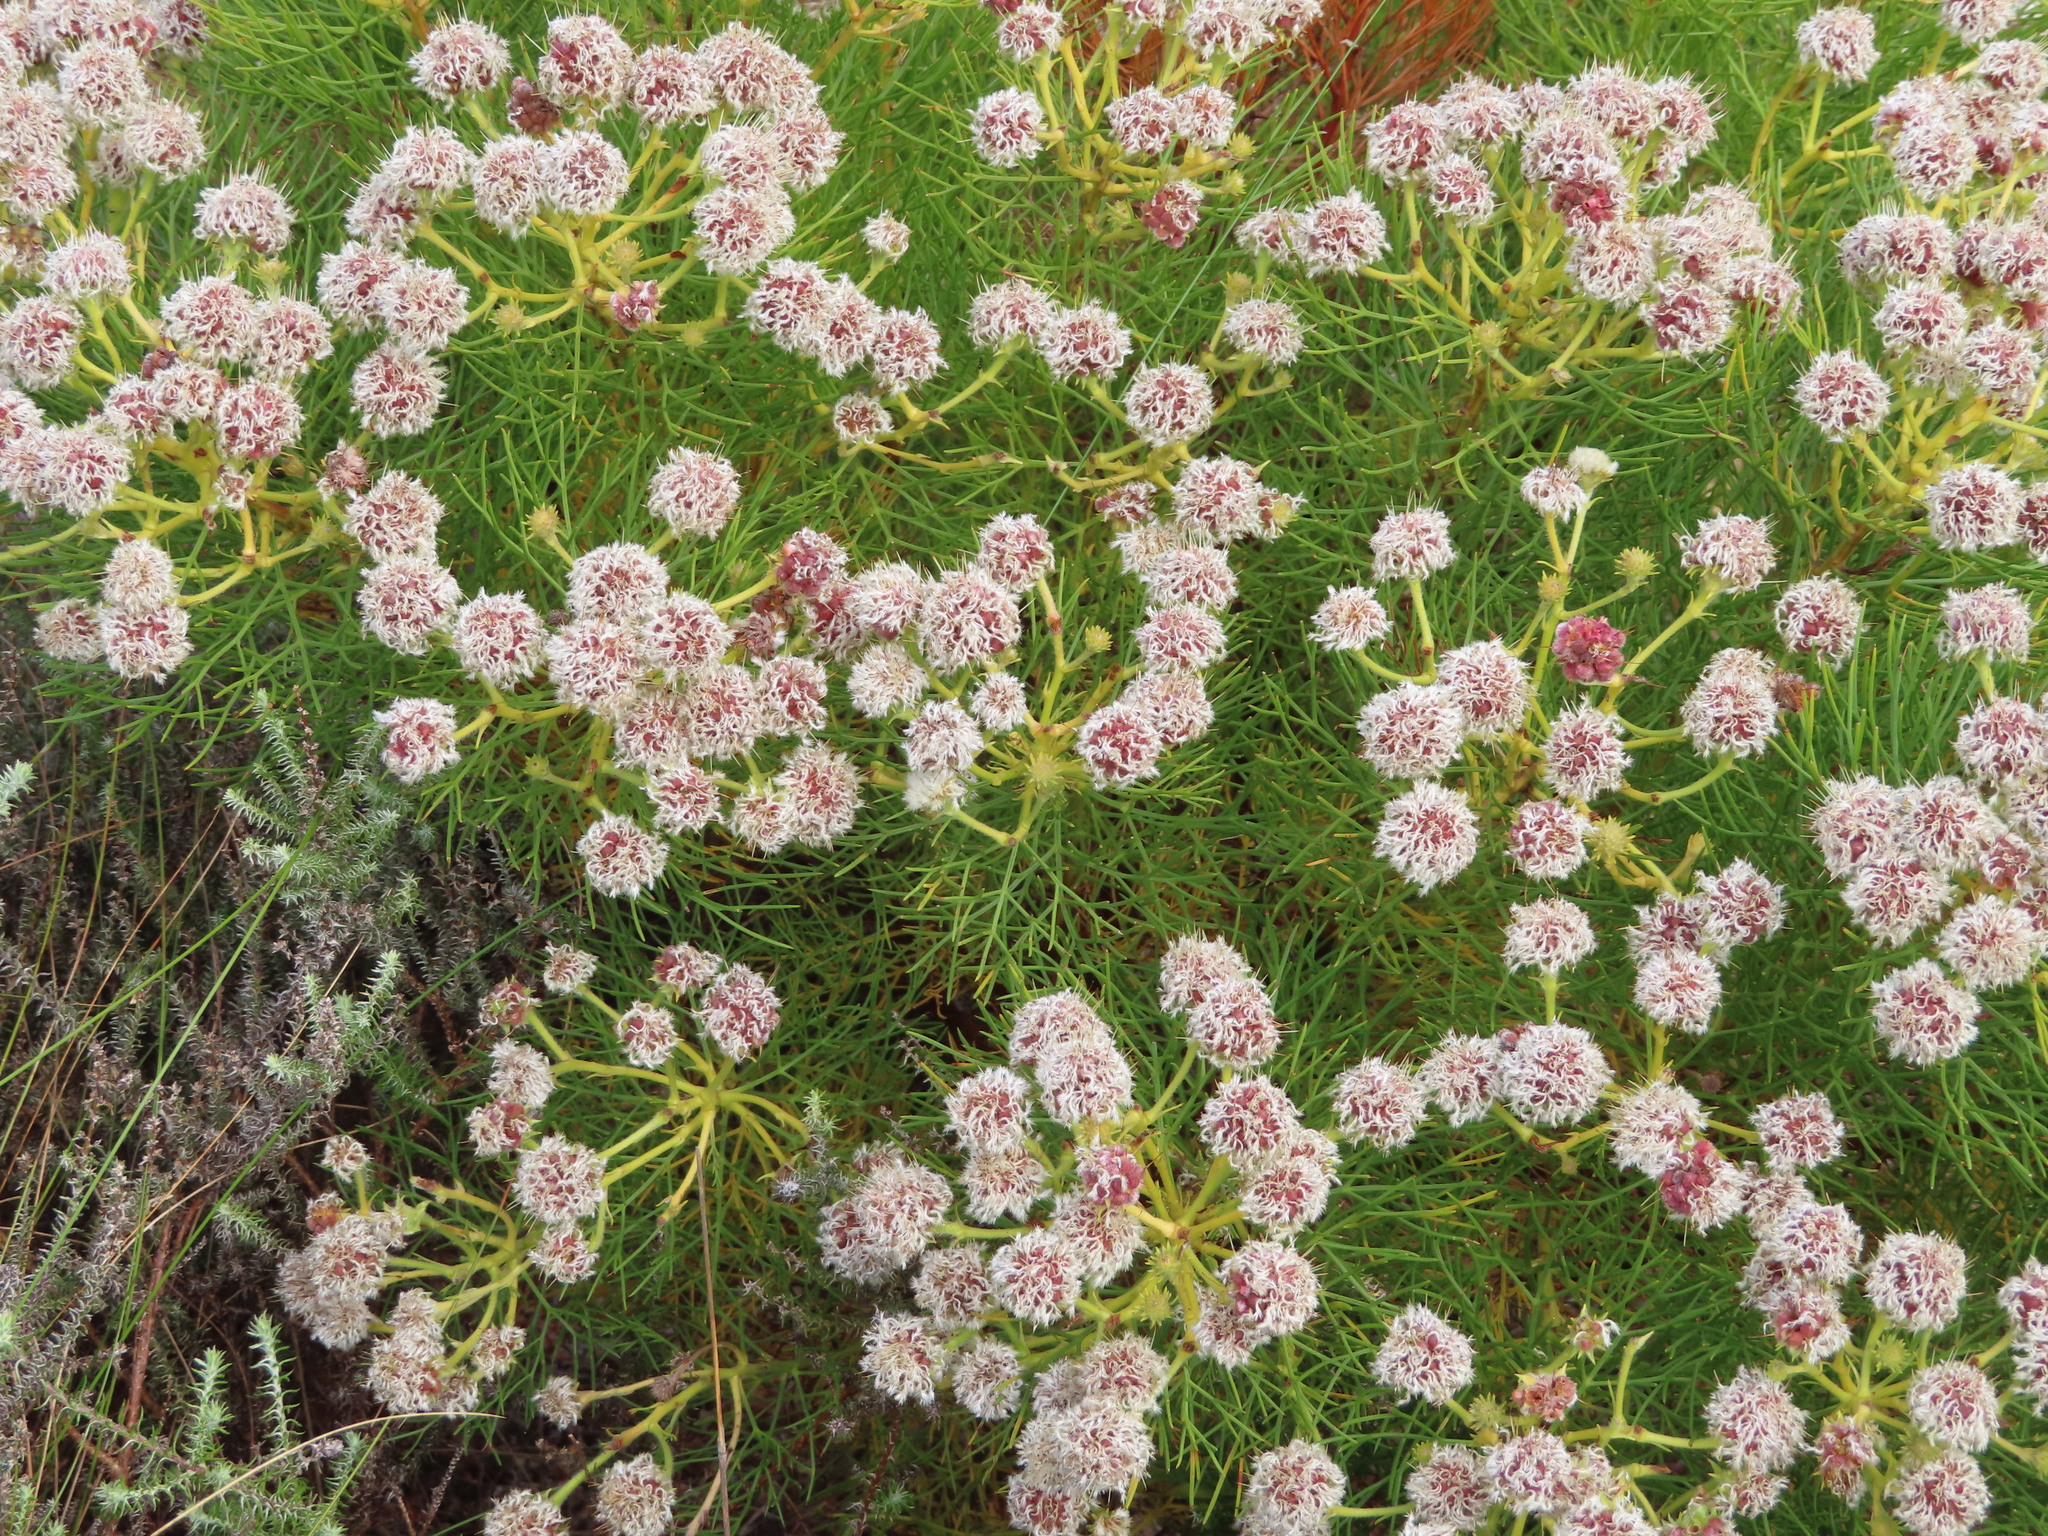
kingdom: Plantae
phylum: Tracheophyta
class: Magnoliopsida
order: Proteales
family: Proteaceae
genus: Serruria
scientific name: Serruria kraussii
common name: Snowball spiderhead
